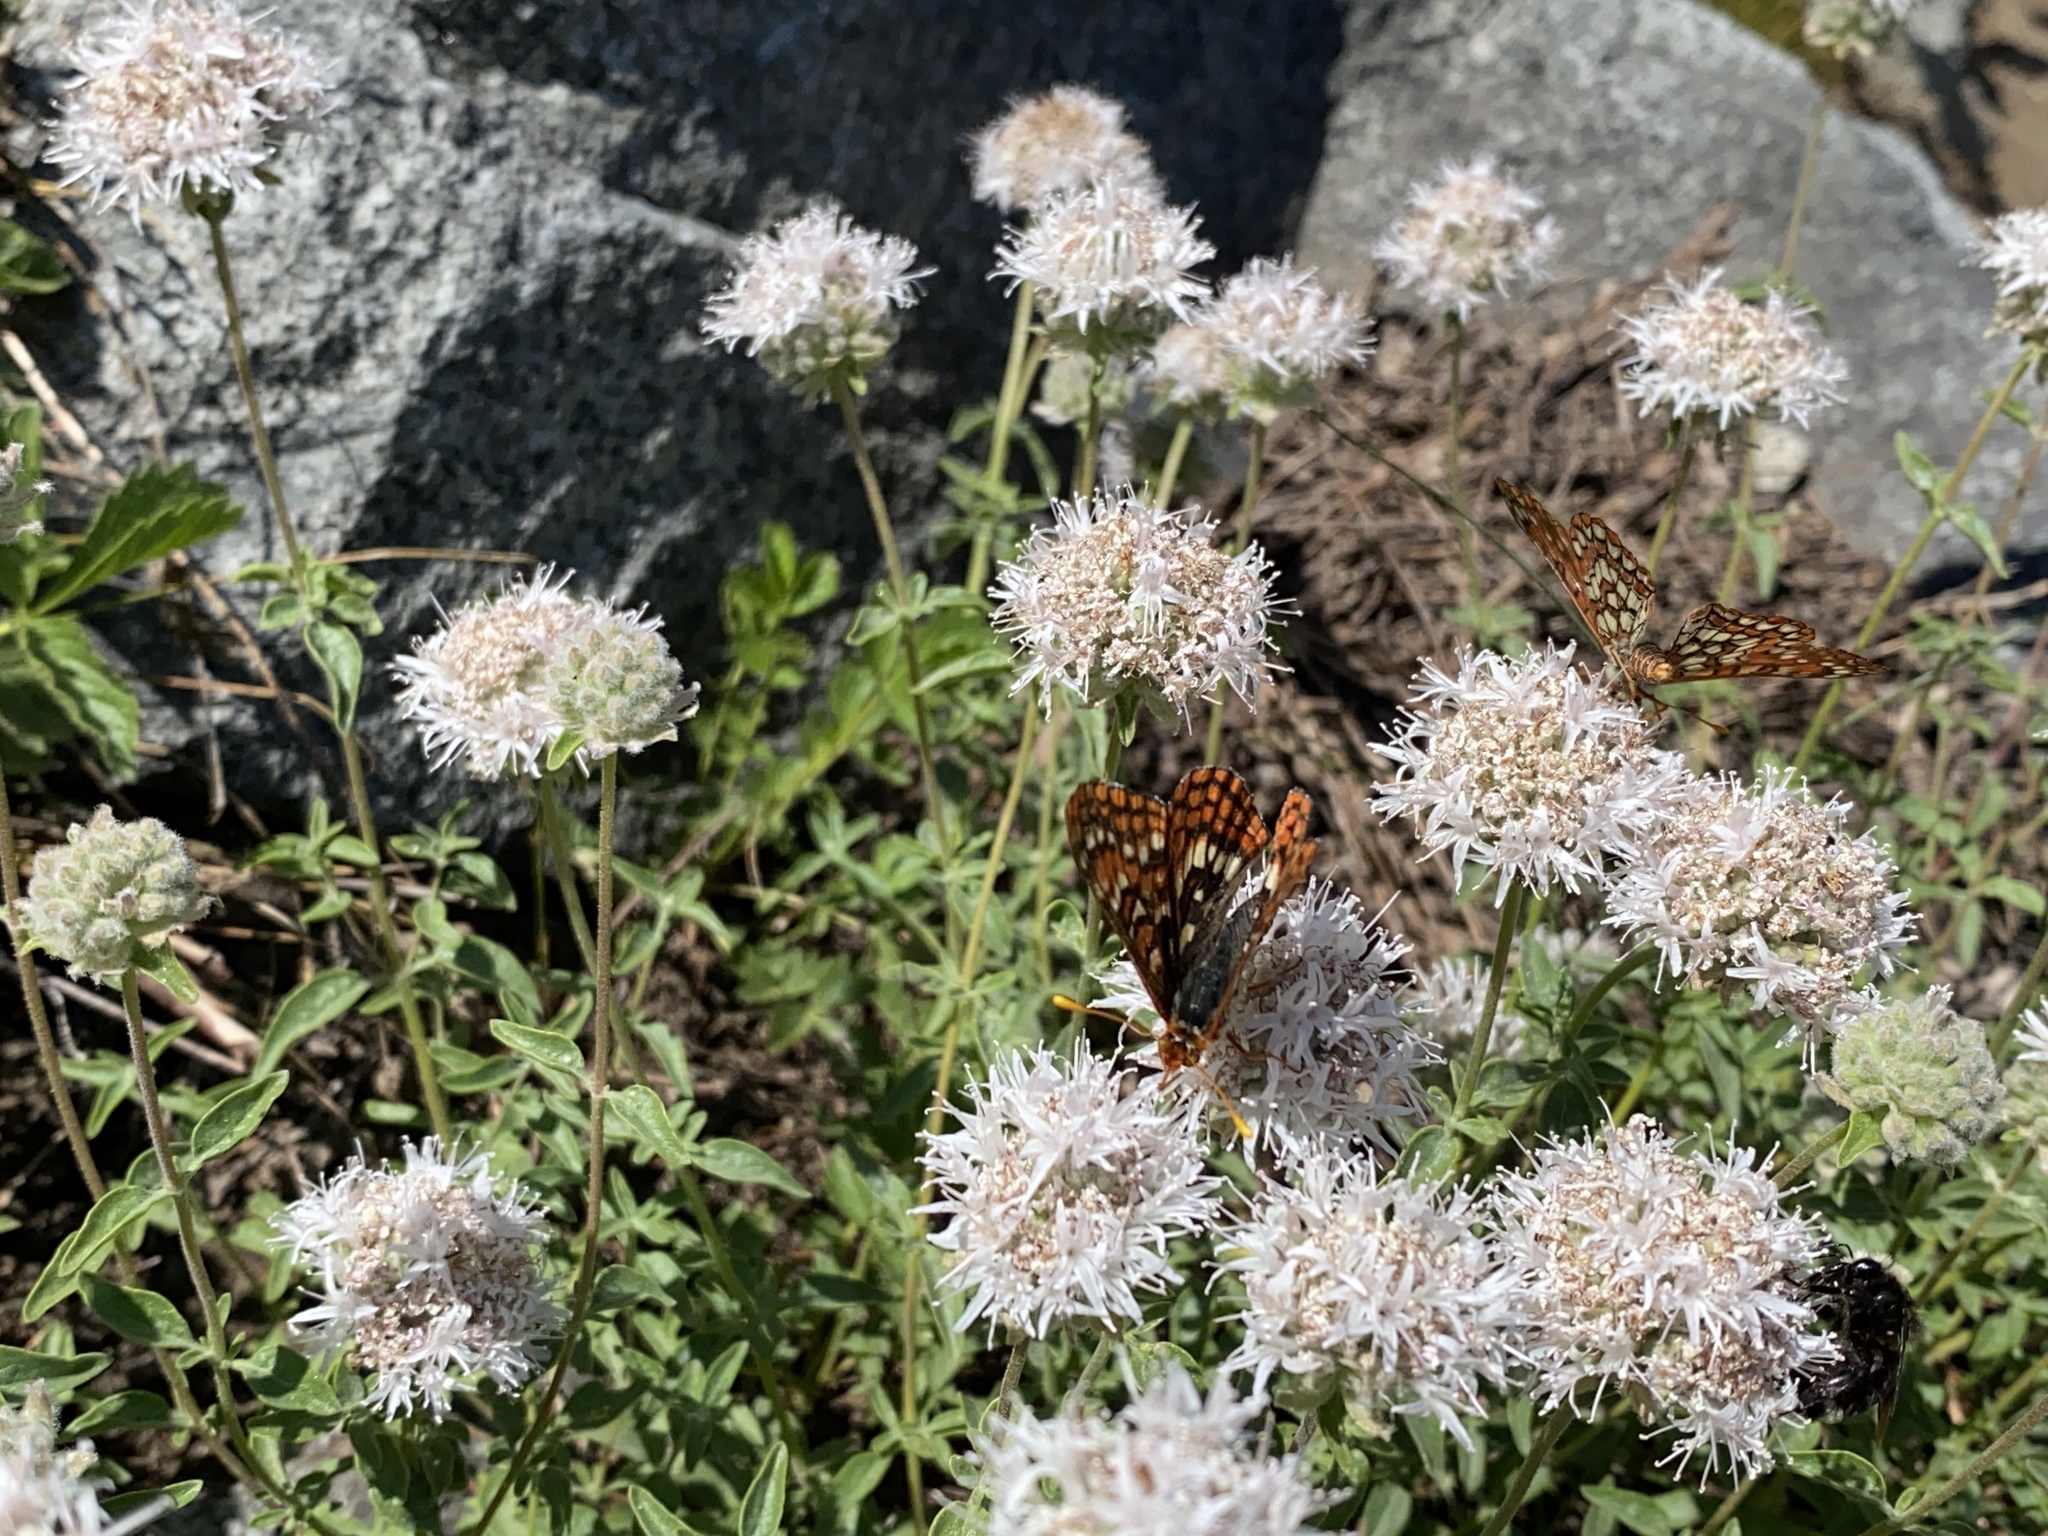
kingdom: Plantae
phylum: Tracheophyta
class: Magnoliopsida
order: Lamiales
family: Lamiaceae
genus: Monardella
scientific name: Monardella odoratissima
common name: Pacific monardella
